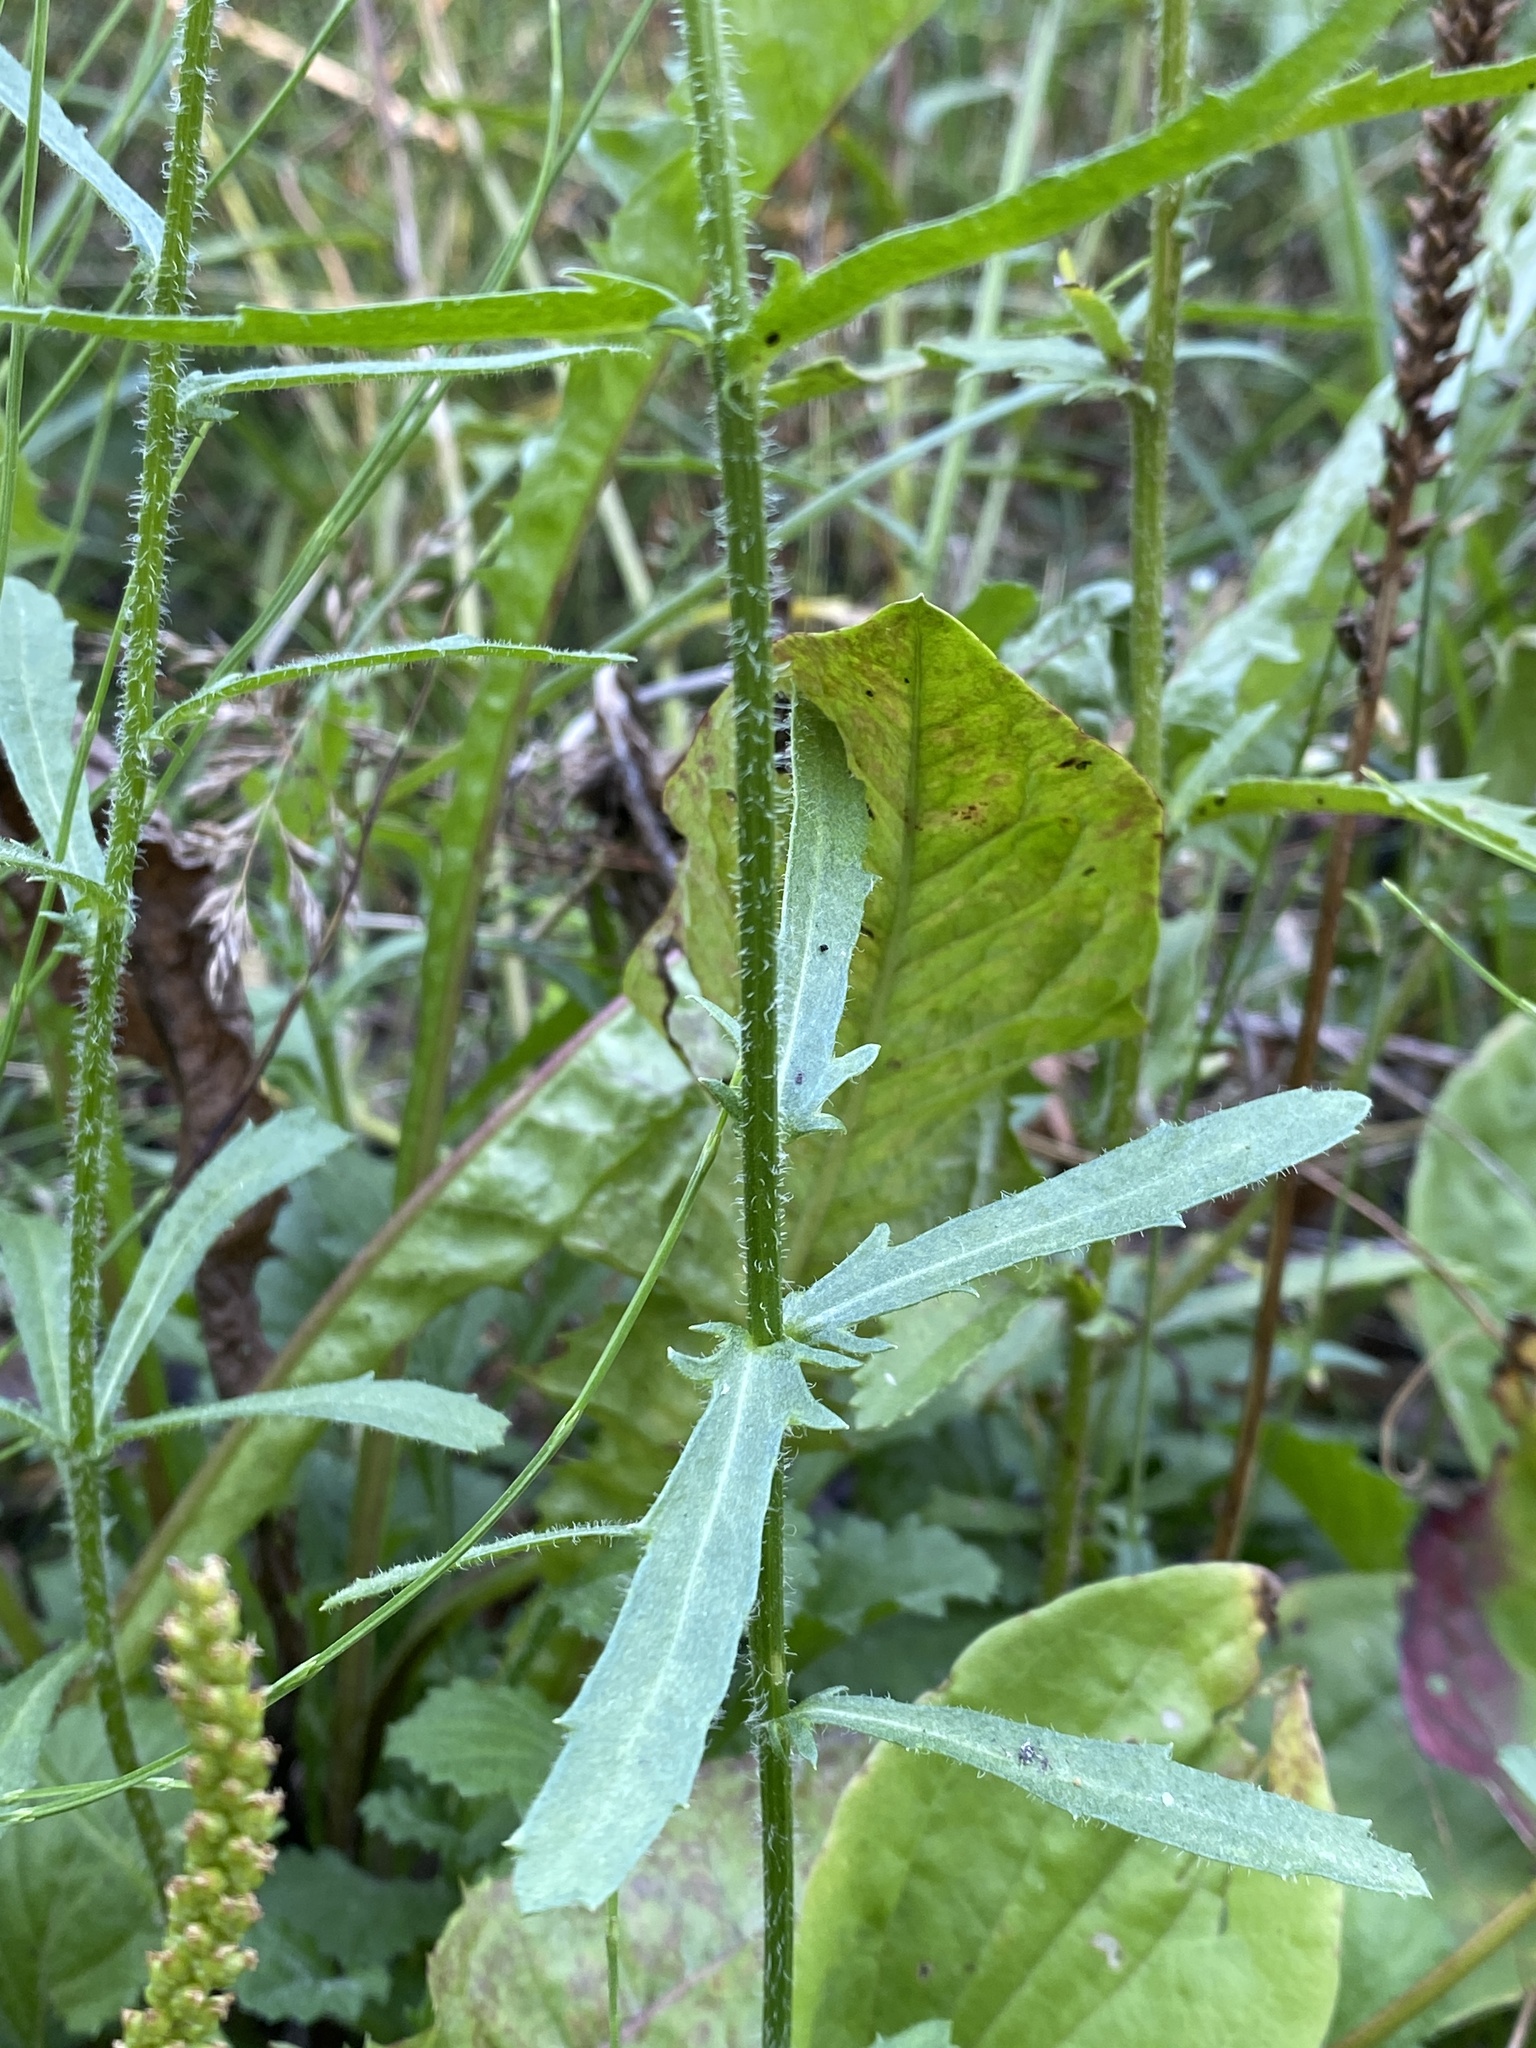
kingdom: Plantae
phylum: Tracheophyta
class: Magnoliopsida
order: Asterales
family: Asteraceae
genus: Leucanthemum
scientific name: Leucanthemum vulgare
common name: Oxeye daisy
